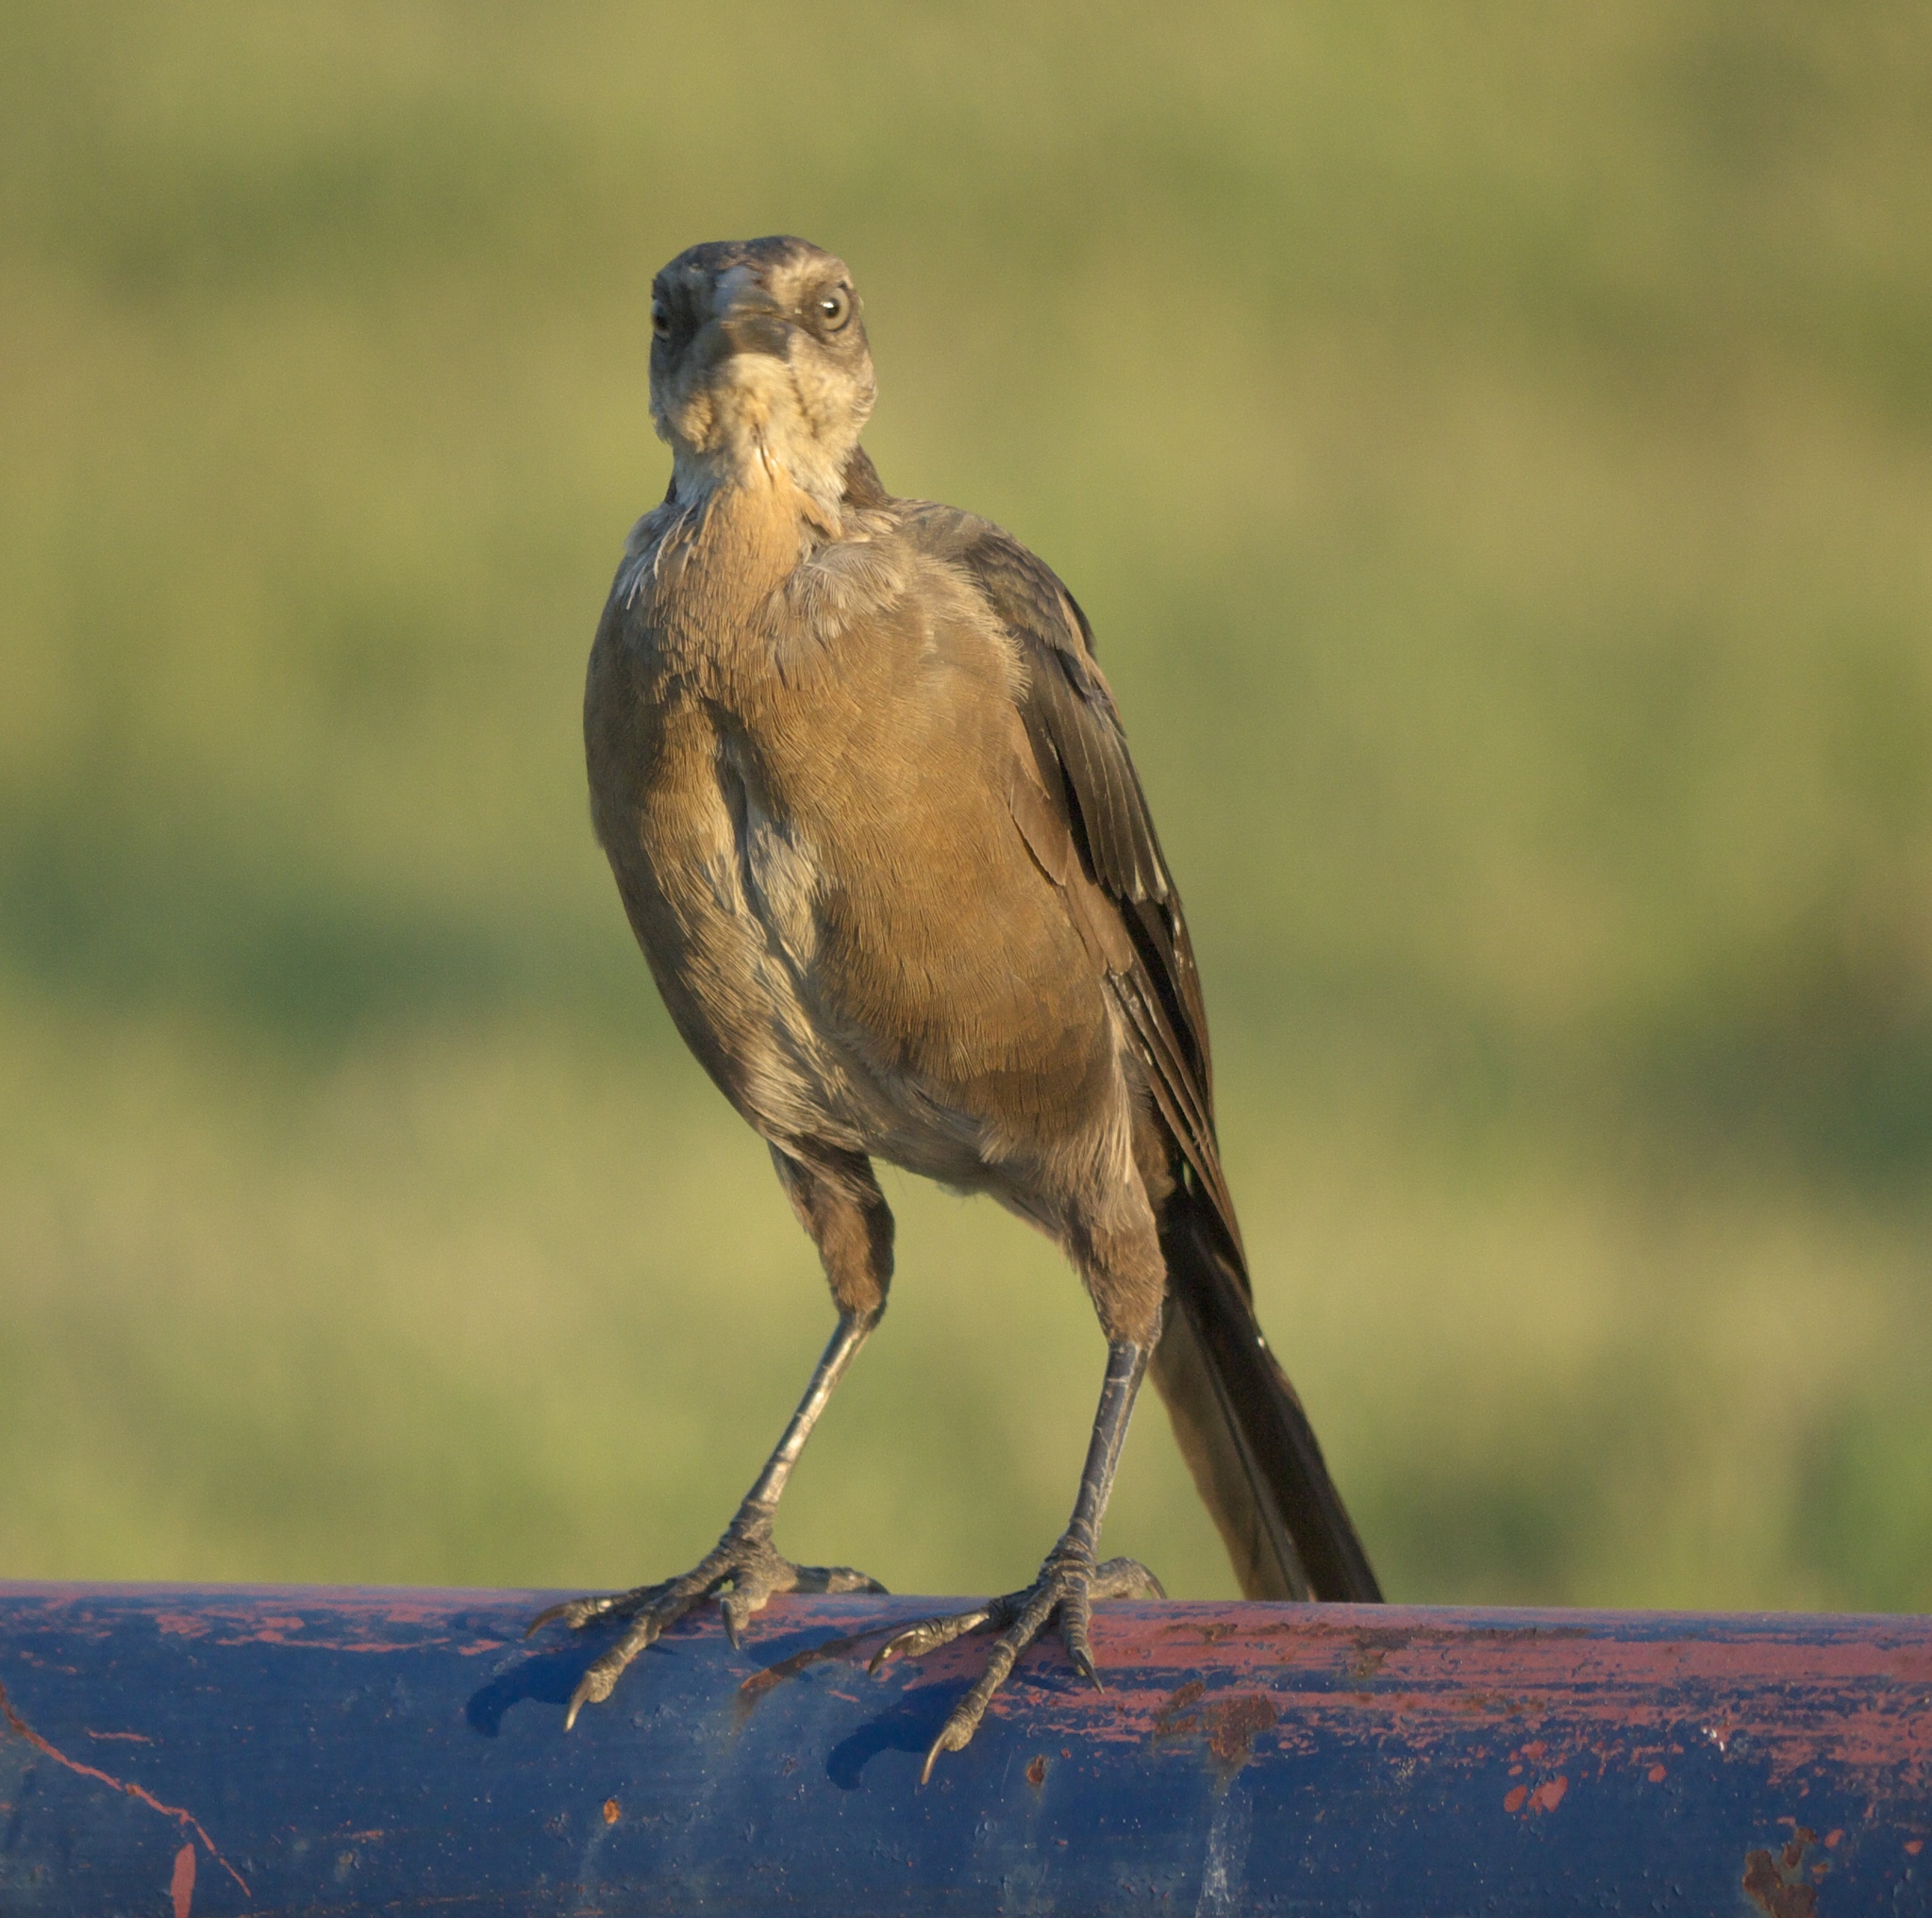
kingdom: Animalia
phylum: Chordata
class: Aves
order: Passeriformes
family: Icteridae
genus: Quiscalus
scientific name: Quiscalus mexicanus
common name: Great-tailed grackle
